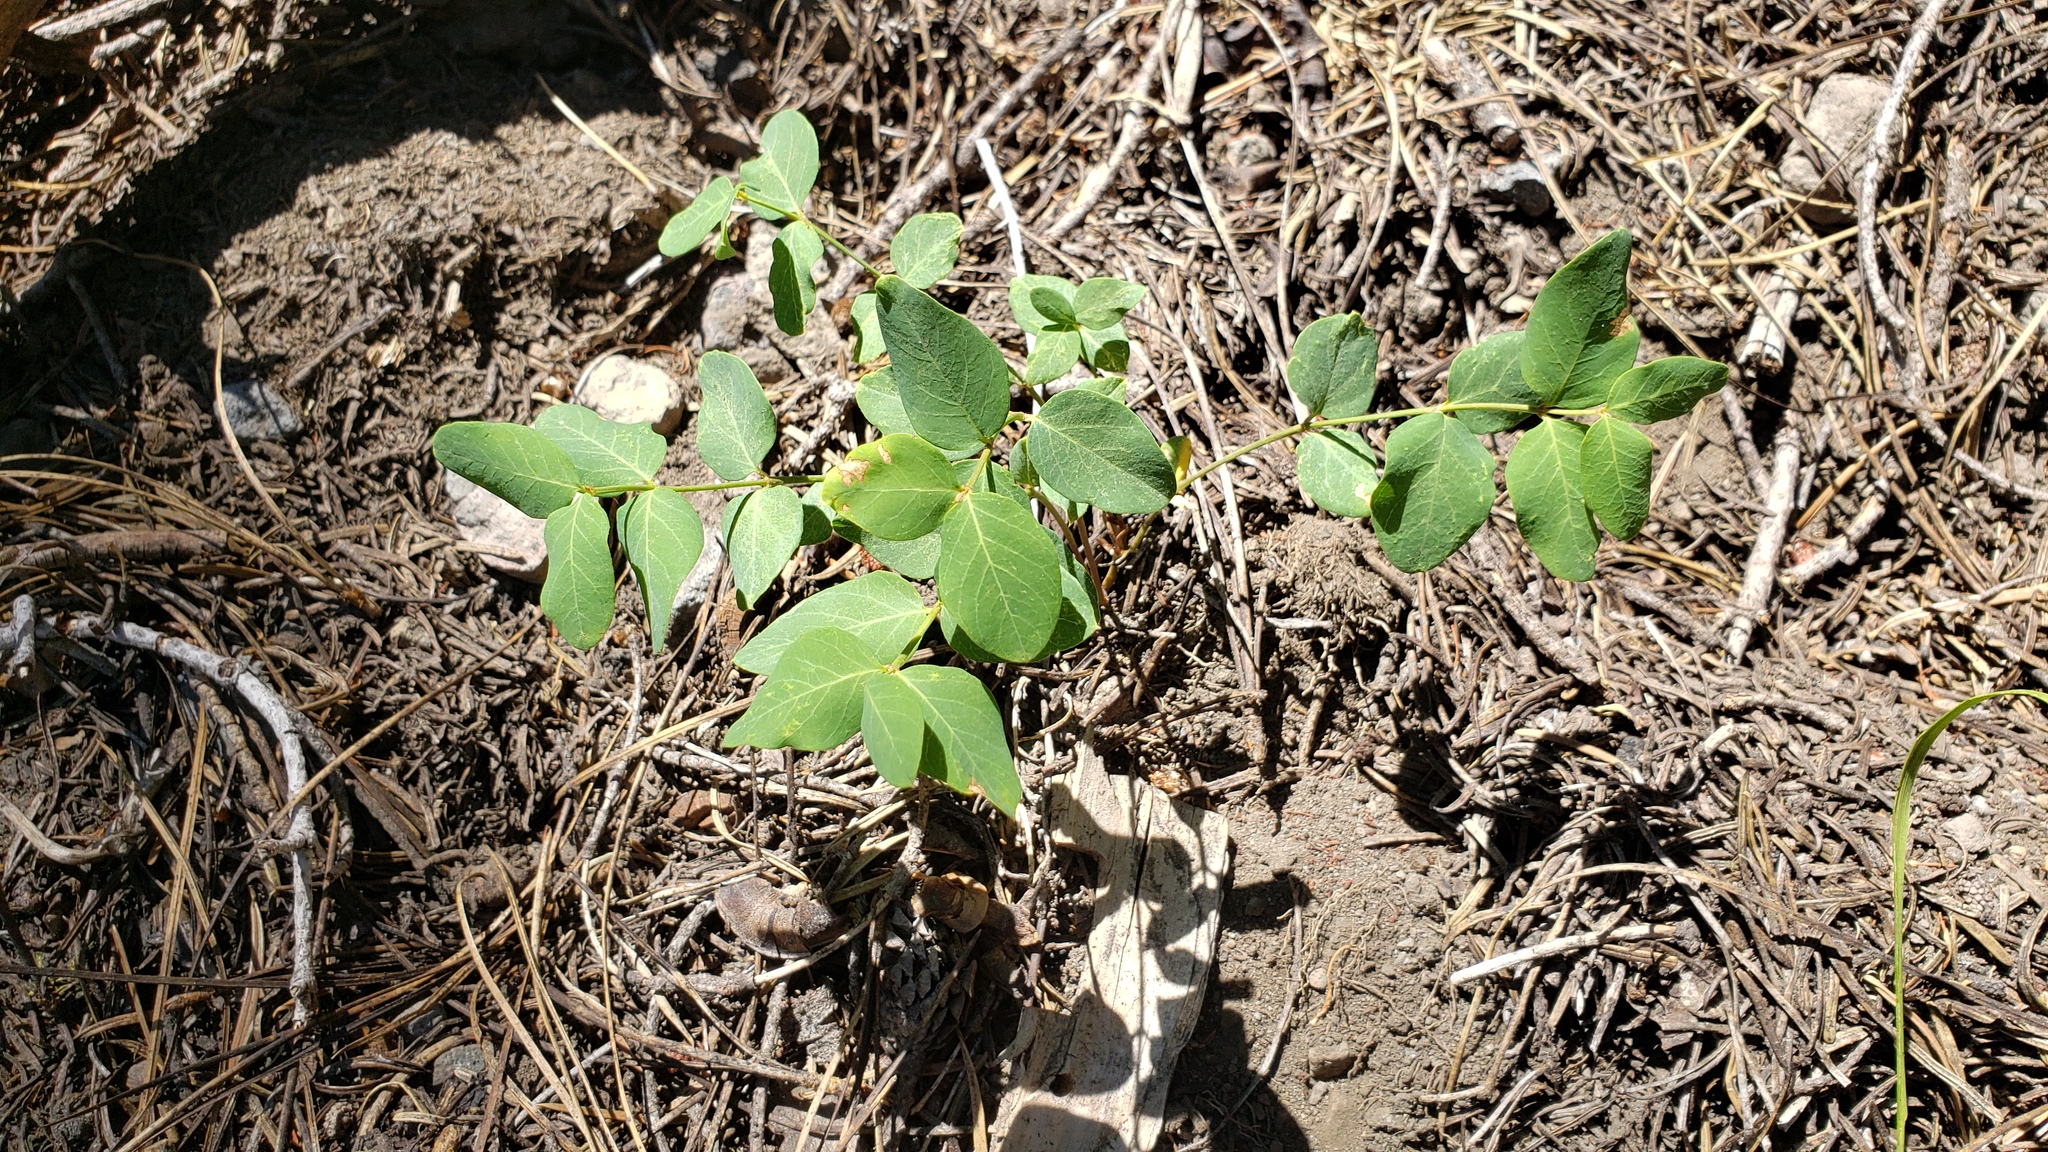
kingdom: Plantae
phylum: Tracheophyta
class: Magnoliopsida
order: Gentianales
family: Apocynaceae
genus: Apocynum
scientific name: Apocynum androsaemifolium
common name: Spreading dogbane
